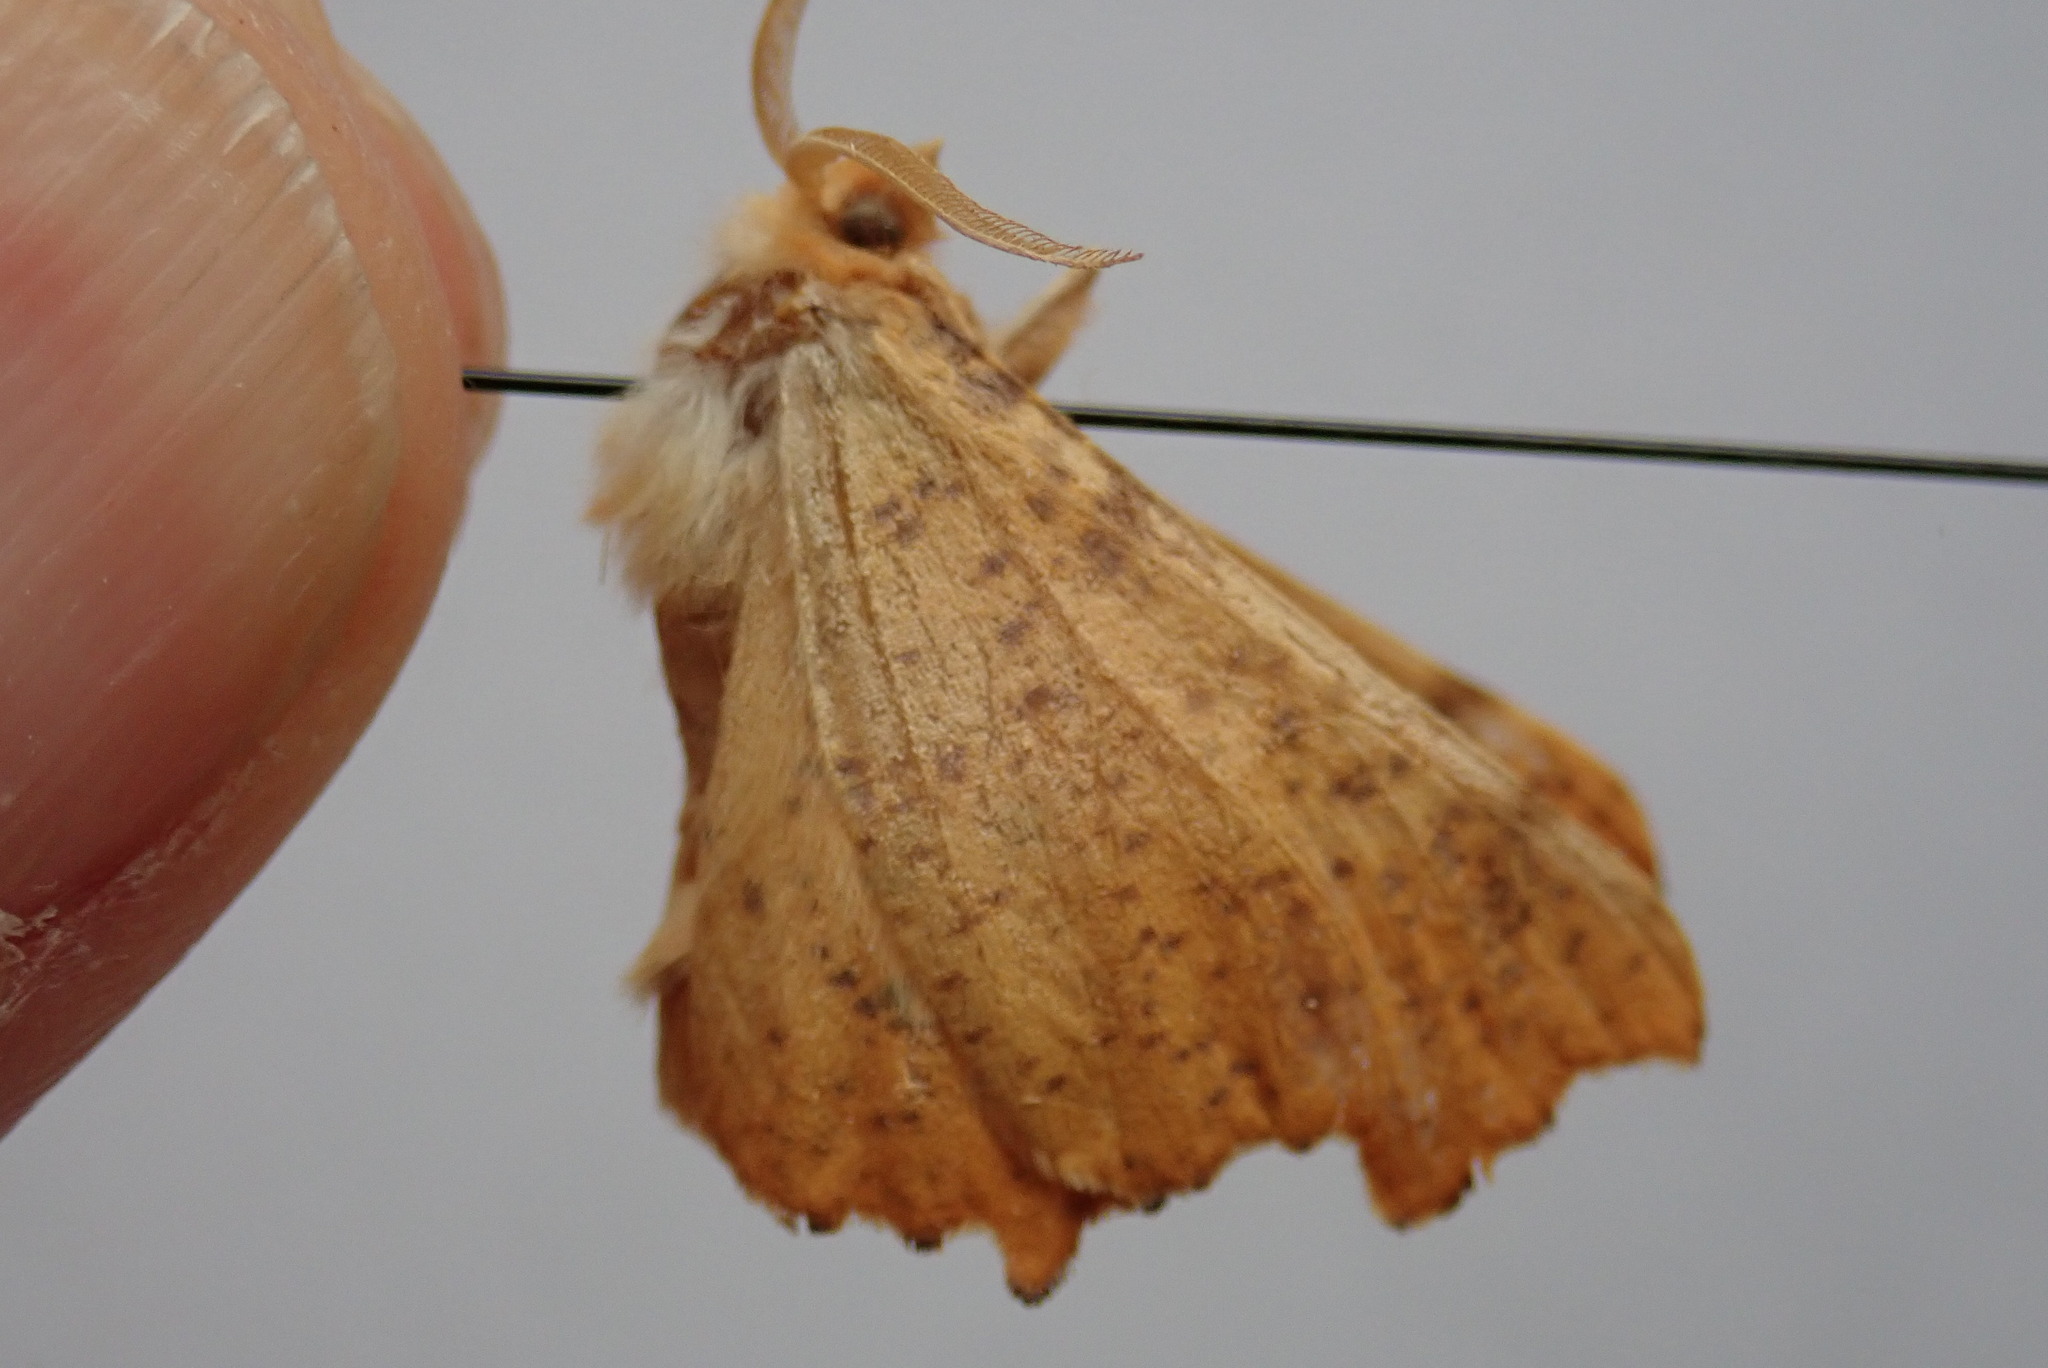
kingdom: Animalia
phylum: Arthropoda
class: Insecta
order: Lepidoptera
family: Geometridae
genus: Ennomos
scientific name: Ennomos magnaria
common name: Maple spanworm
